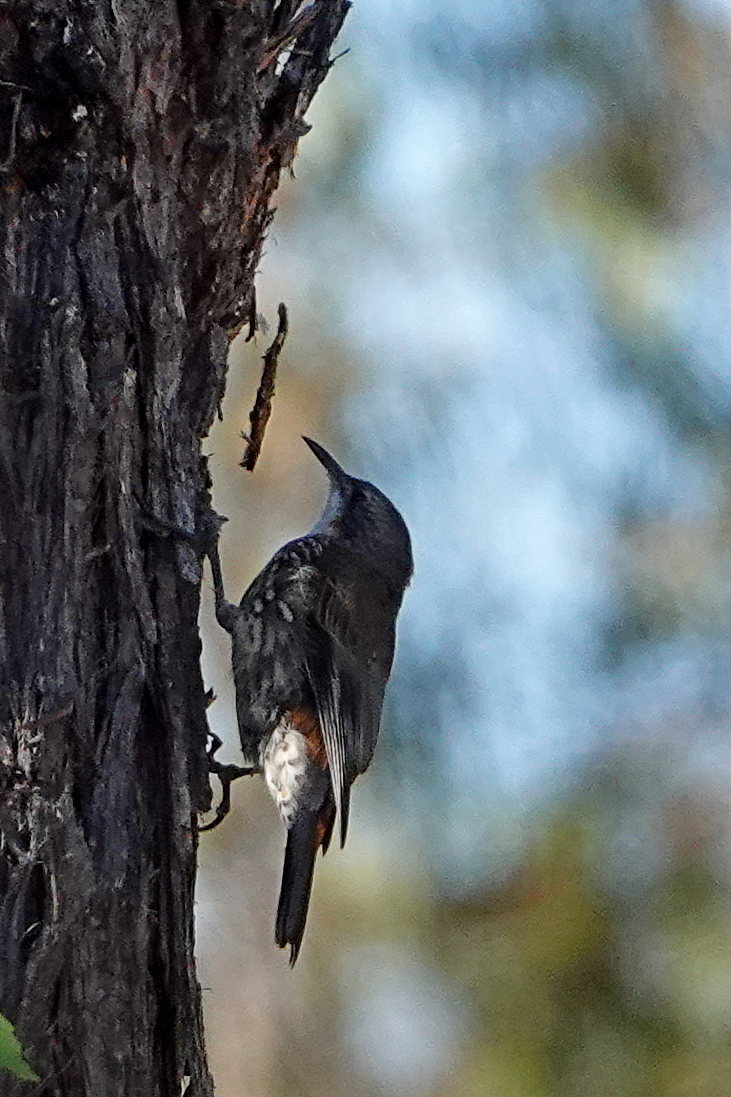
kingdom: Animalia
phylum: Chordata
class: Aves
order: Passeriformes
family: Climacteridae
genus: Cormobates
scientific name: Cormobates leucophaea
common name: White-throated treecreeper
